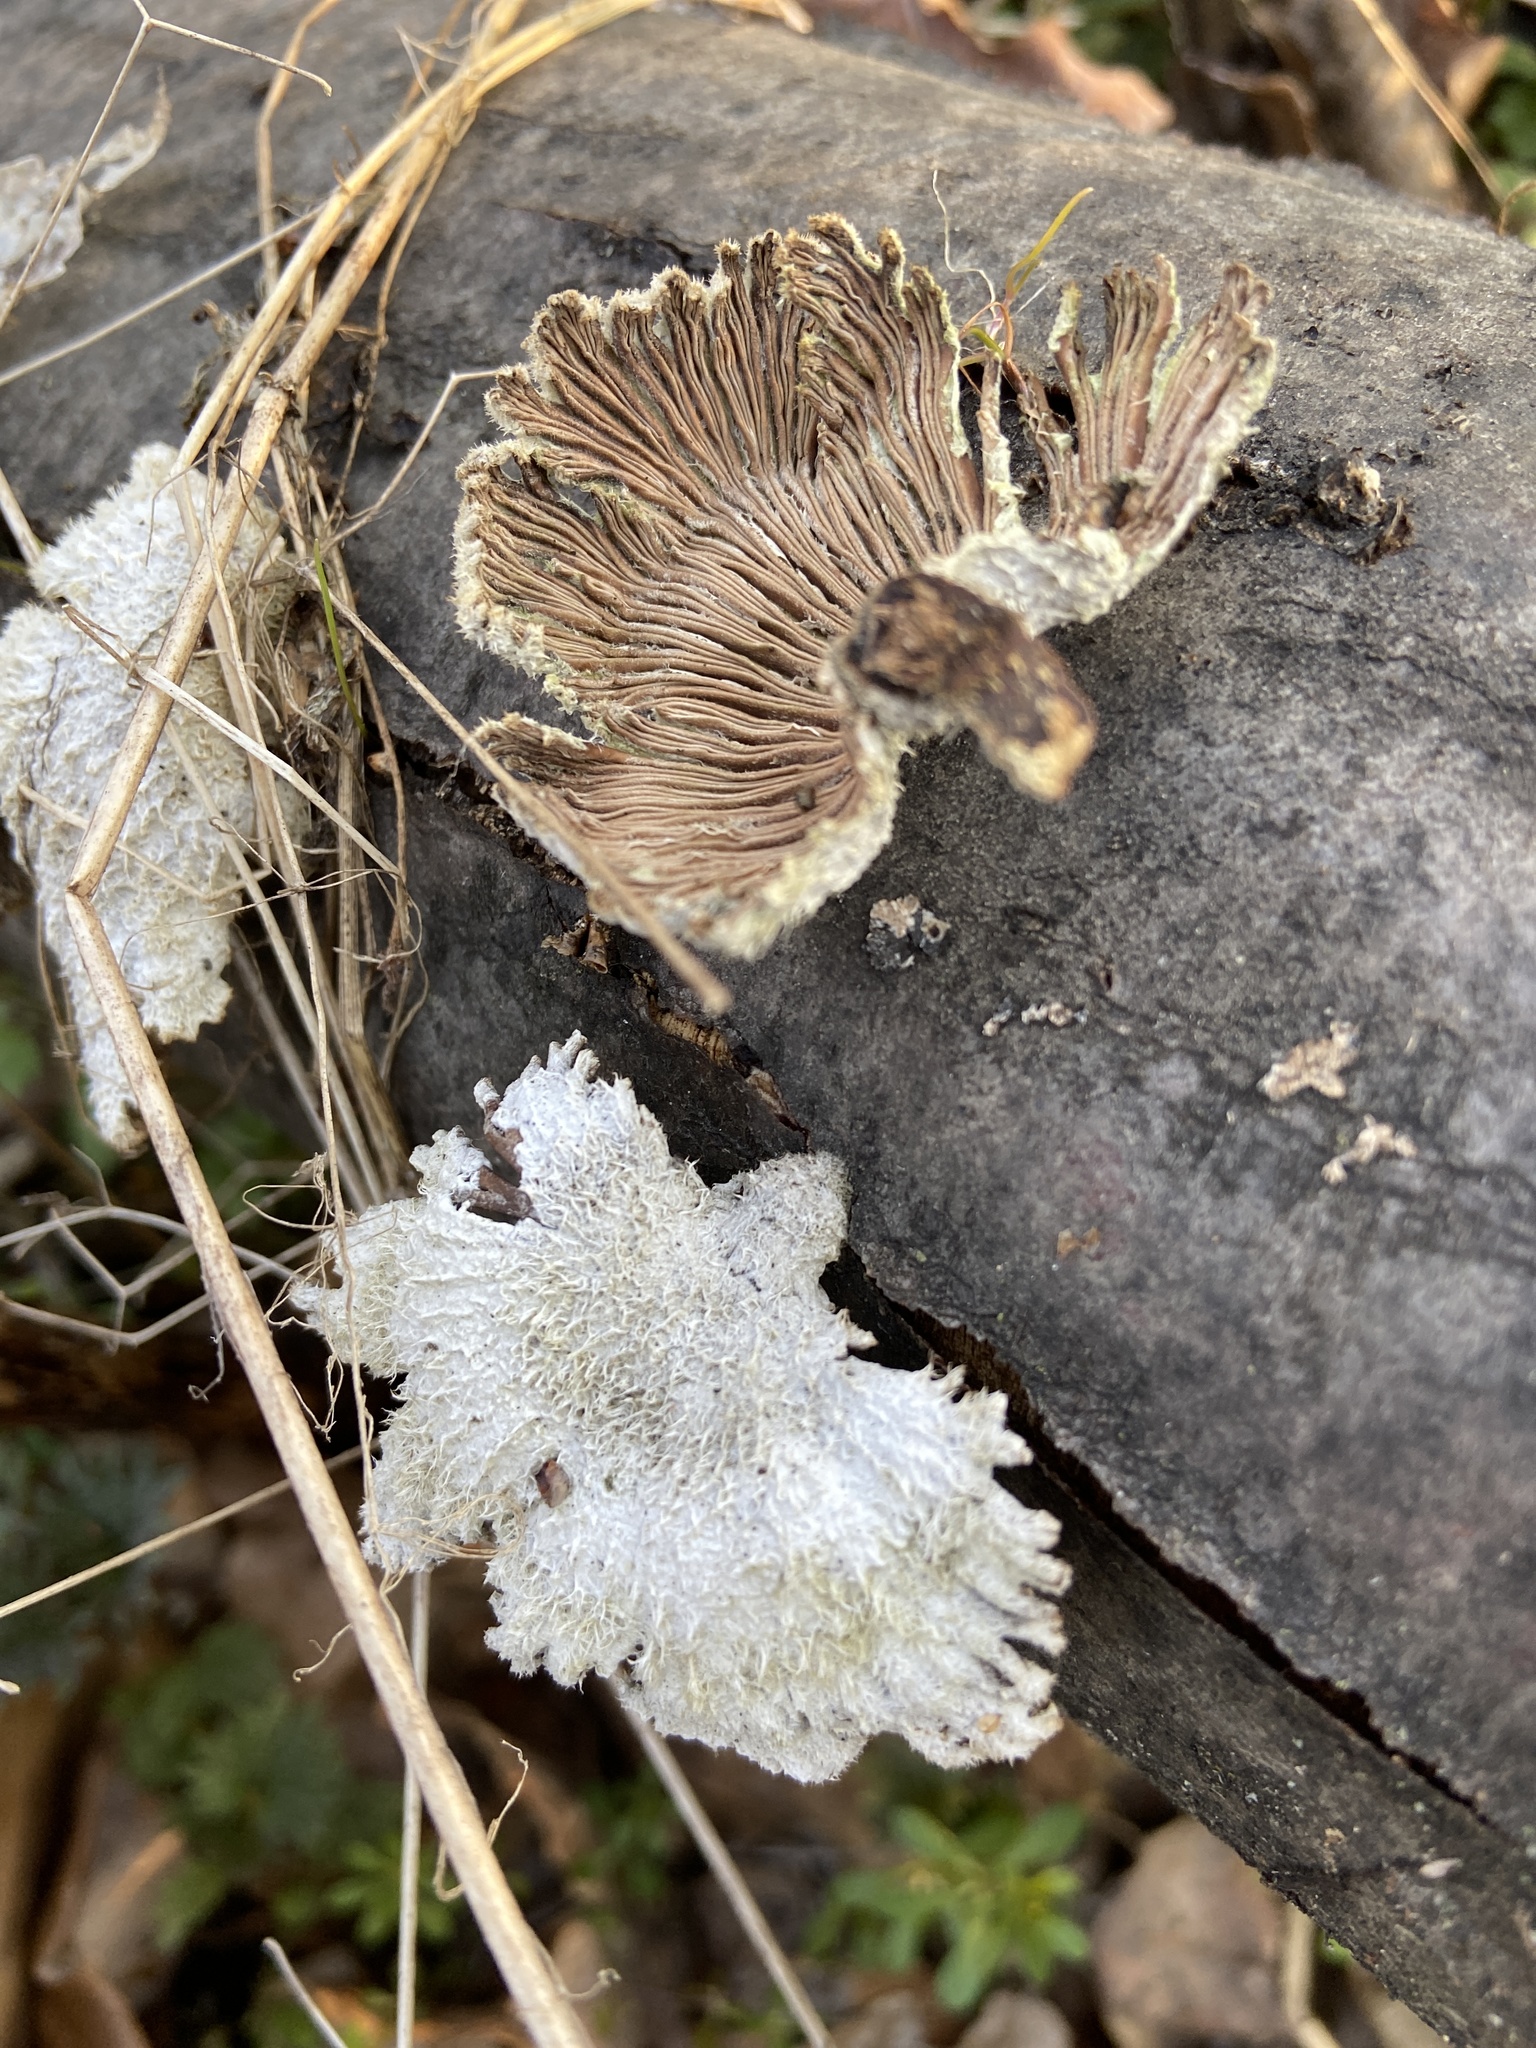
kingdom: Fungi
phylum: Basidiomycota
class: Agaricomycetes
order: Agaricales
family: Schizophyllaceae
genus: Schizophyllum
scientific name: Schizophyllum commune
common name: Common porecrust
